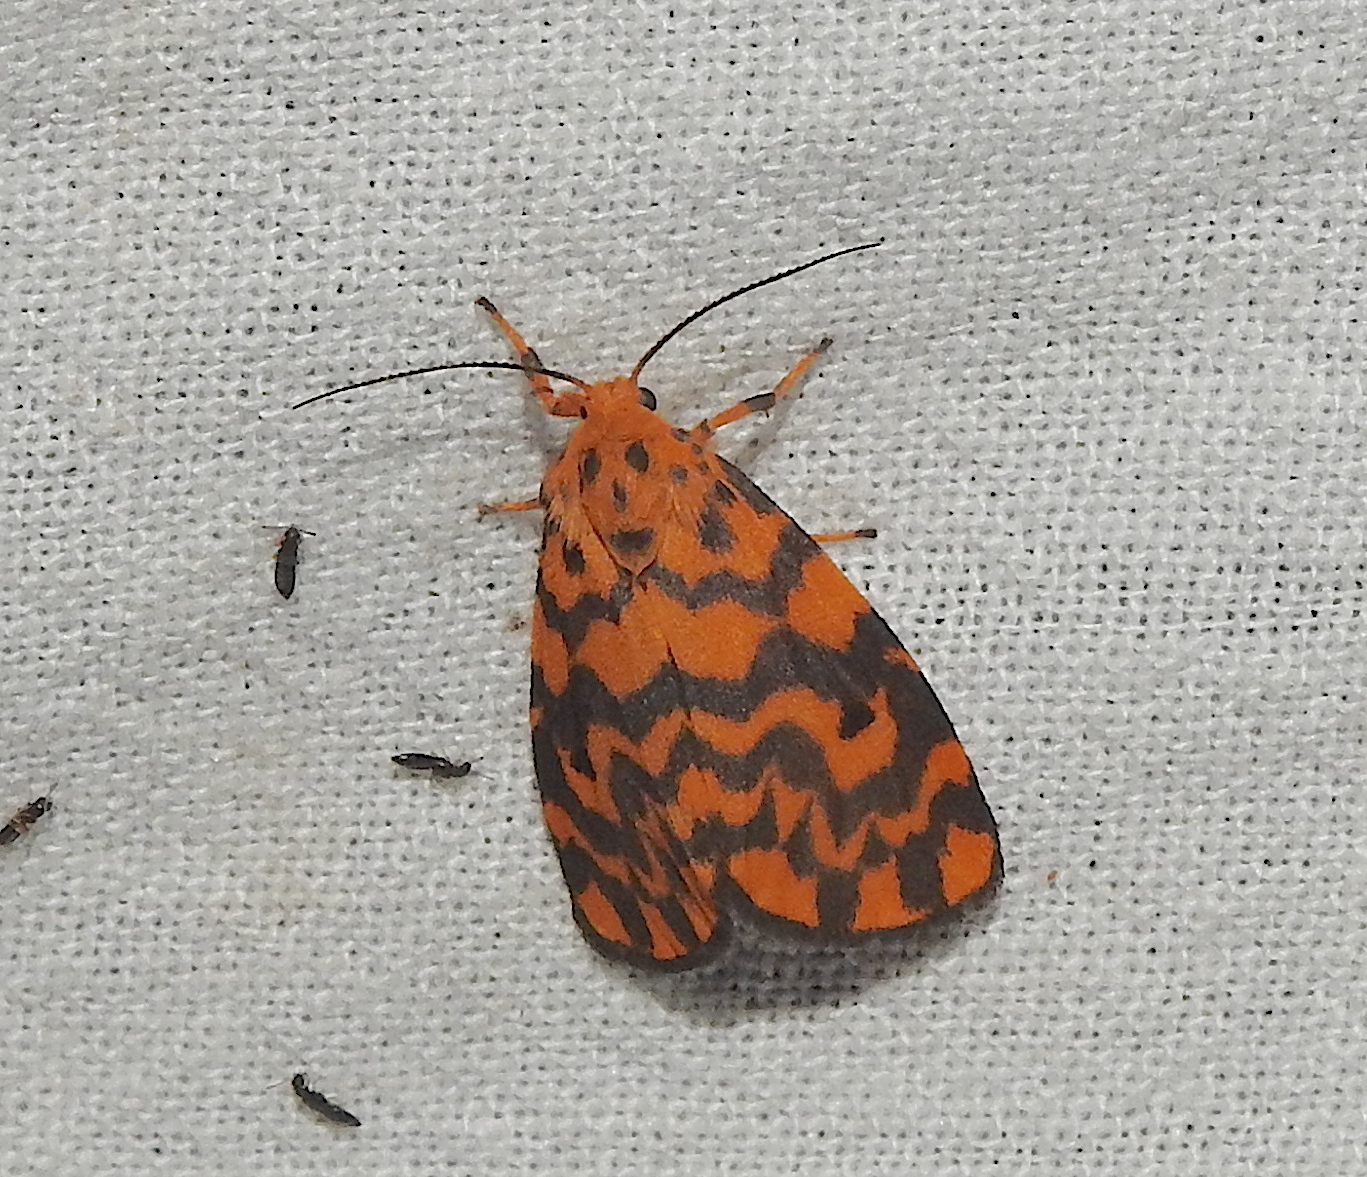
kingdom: Animalia
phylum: Arthropoda
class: Insecta
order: Lepidoptera
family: Erebidae
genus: Nepita
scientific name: Nepita conferta
